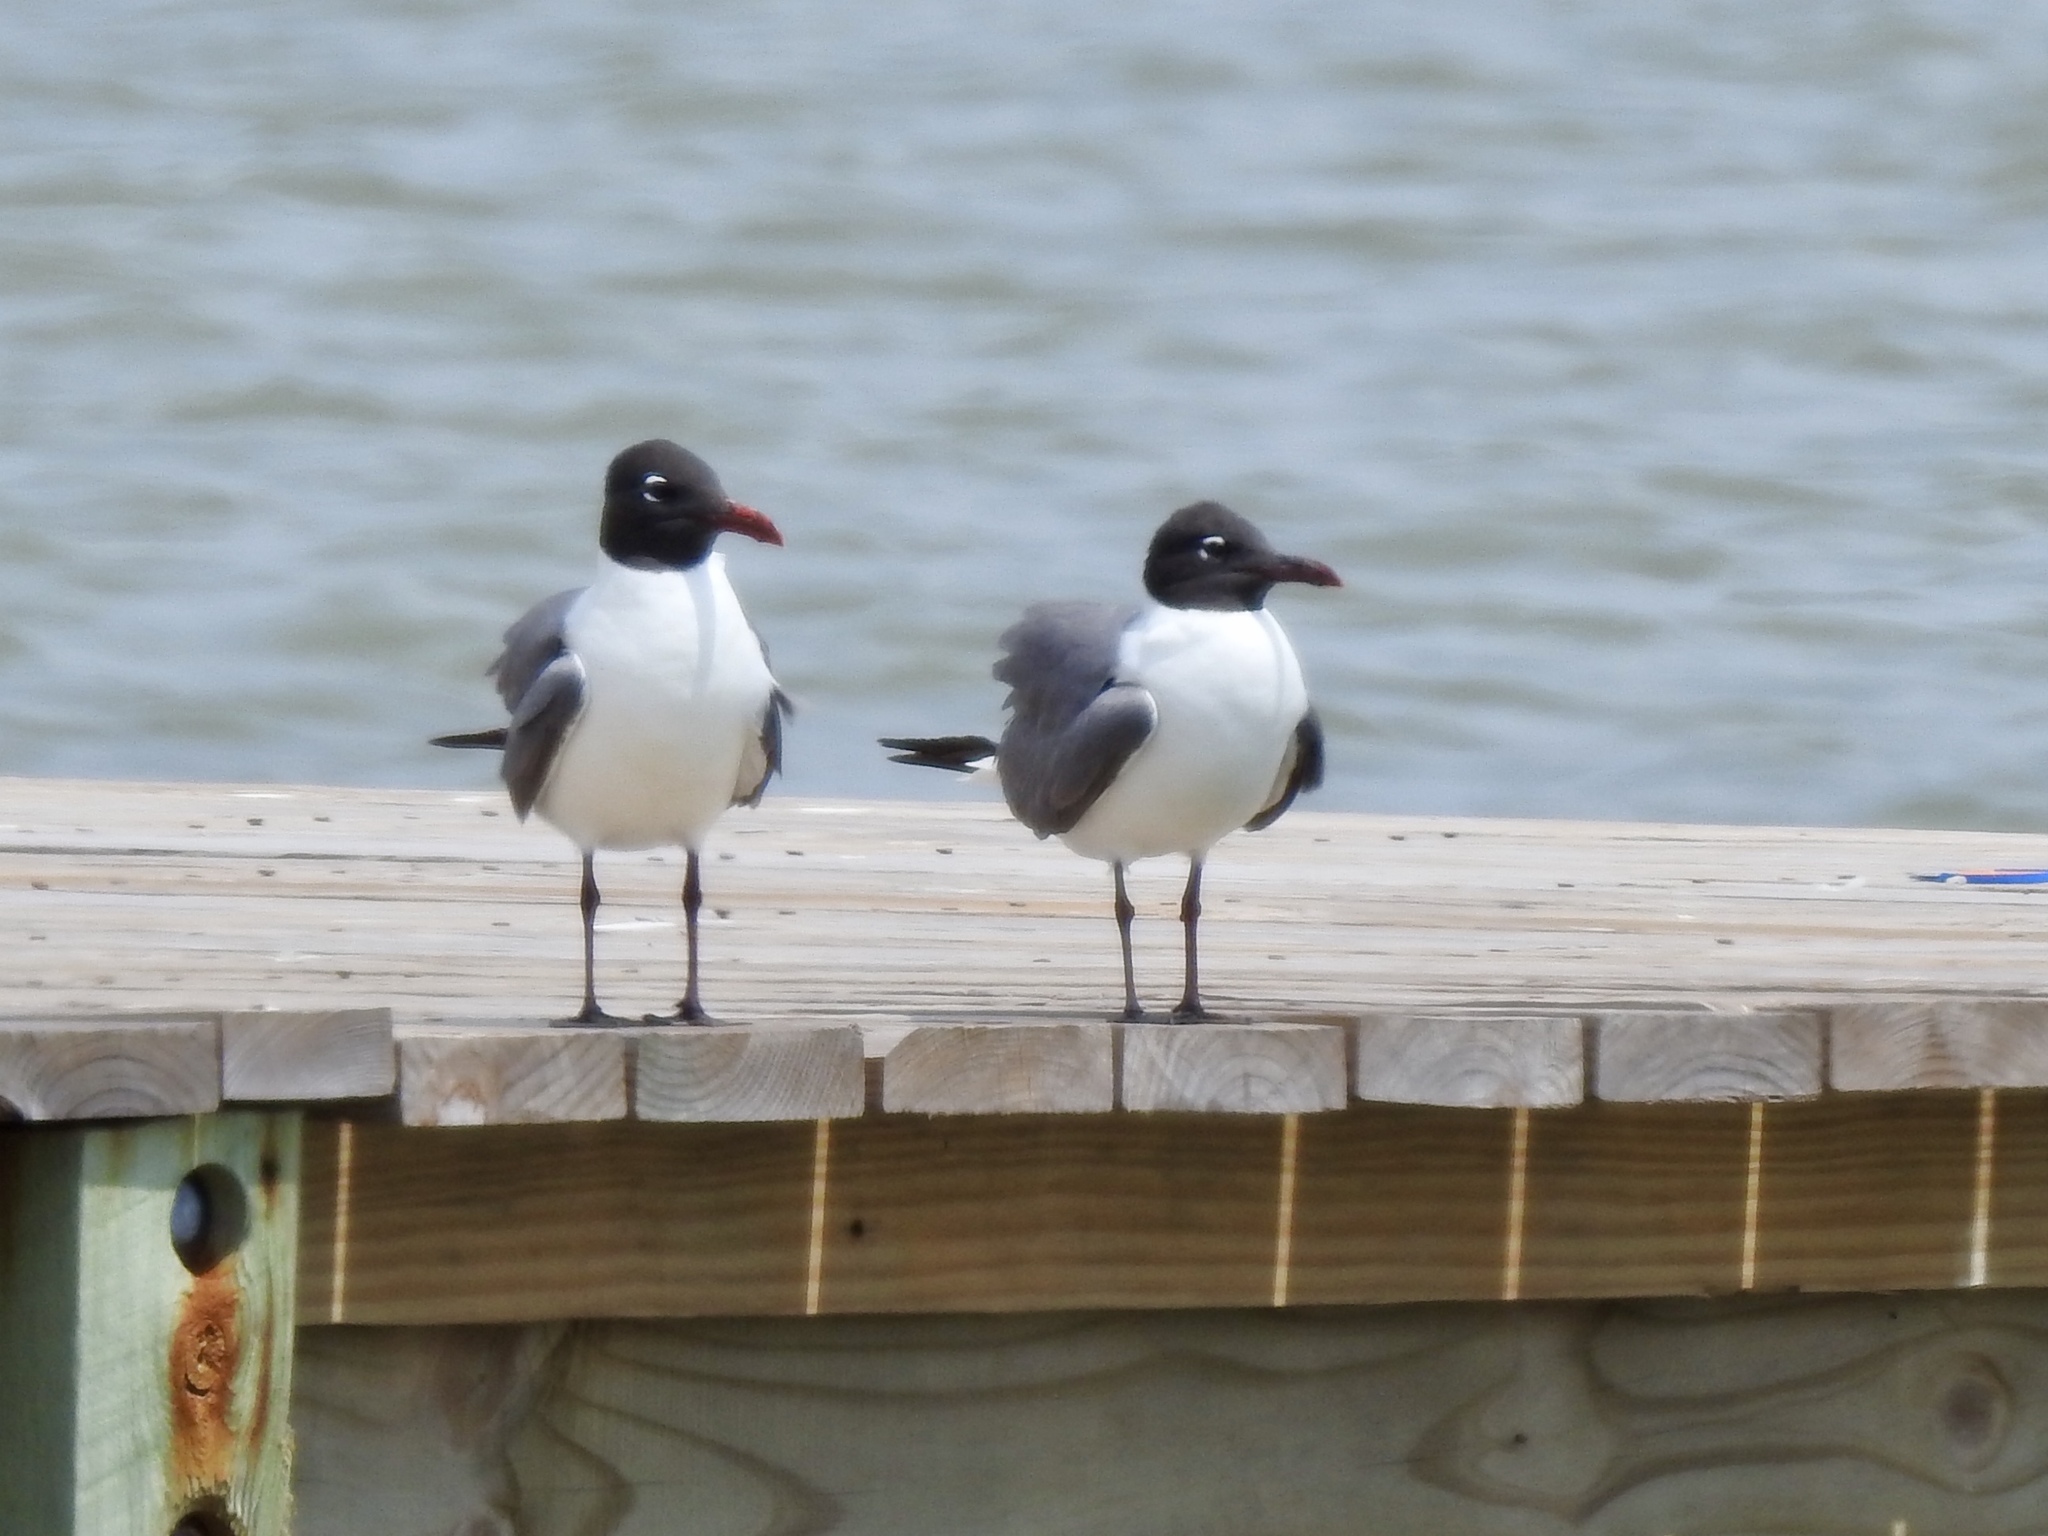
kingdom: Animalia
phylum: Chordata
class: Aves
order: Charadriiformes
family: Laridae
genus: Leucophaeus
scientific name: Leucophaeus atricilla
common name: Laughing gull
